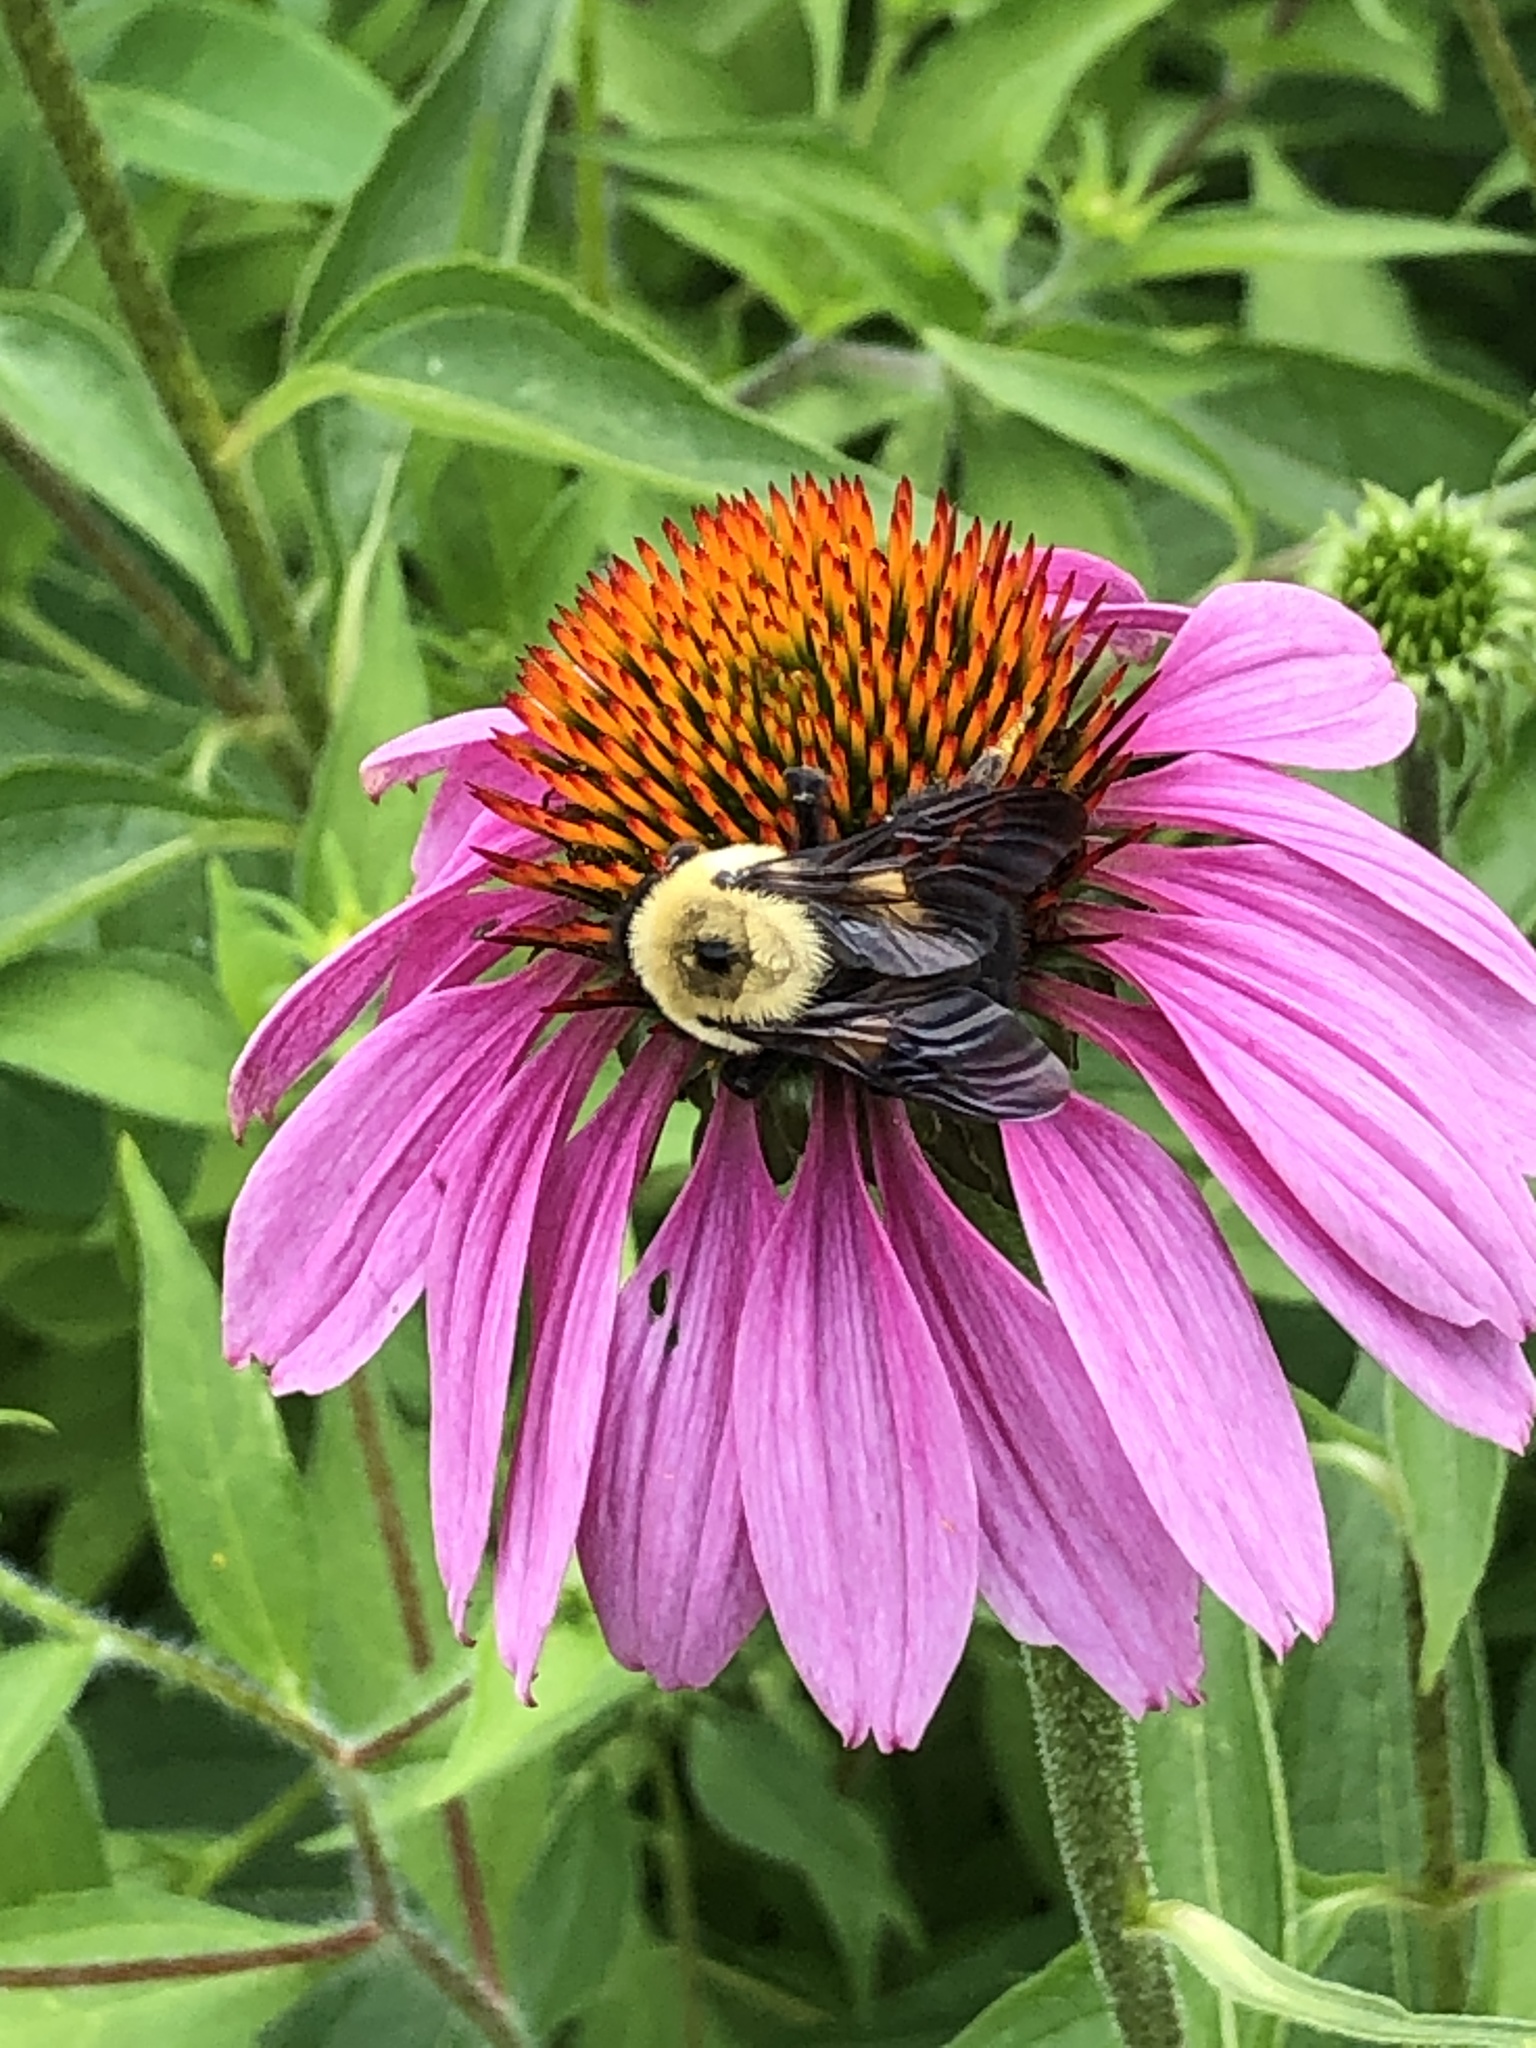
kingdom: Animalia
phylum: Arthropoda
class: Insecta
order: Hymenoptera
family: Apidae
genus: Bombus
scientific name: Bombus griseocollis
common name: Brown-belted bumble bee
